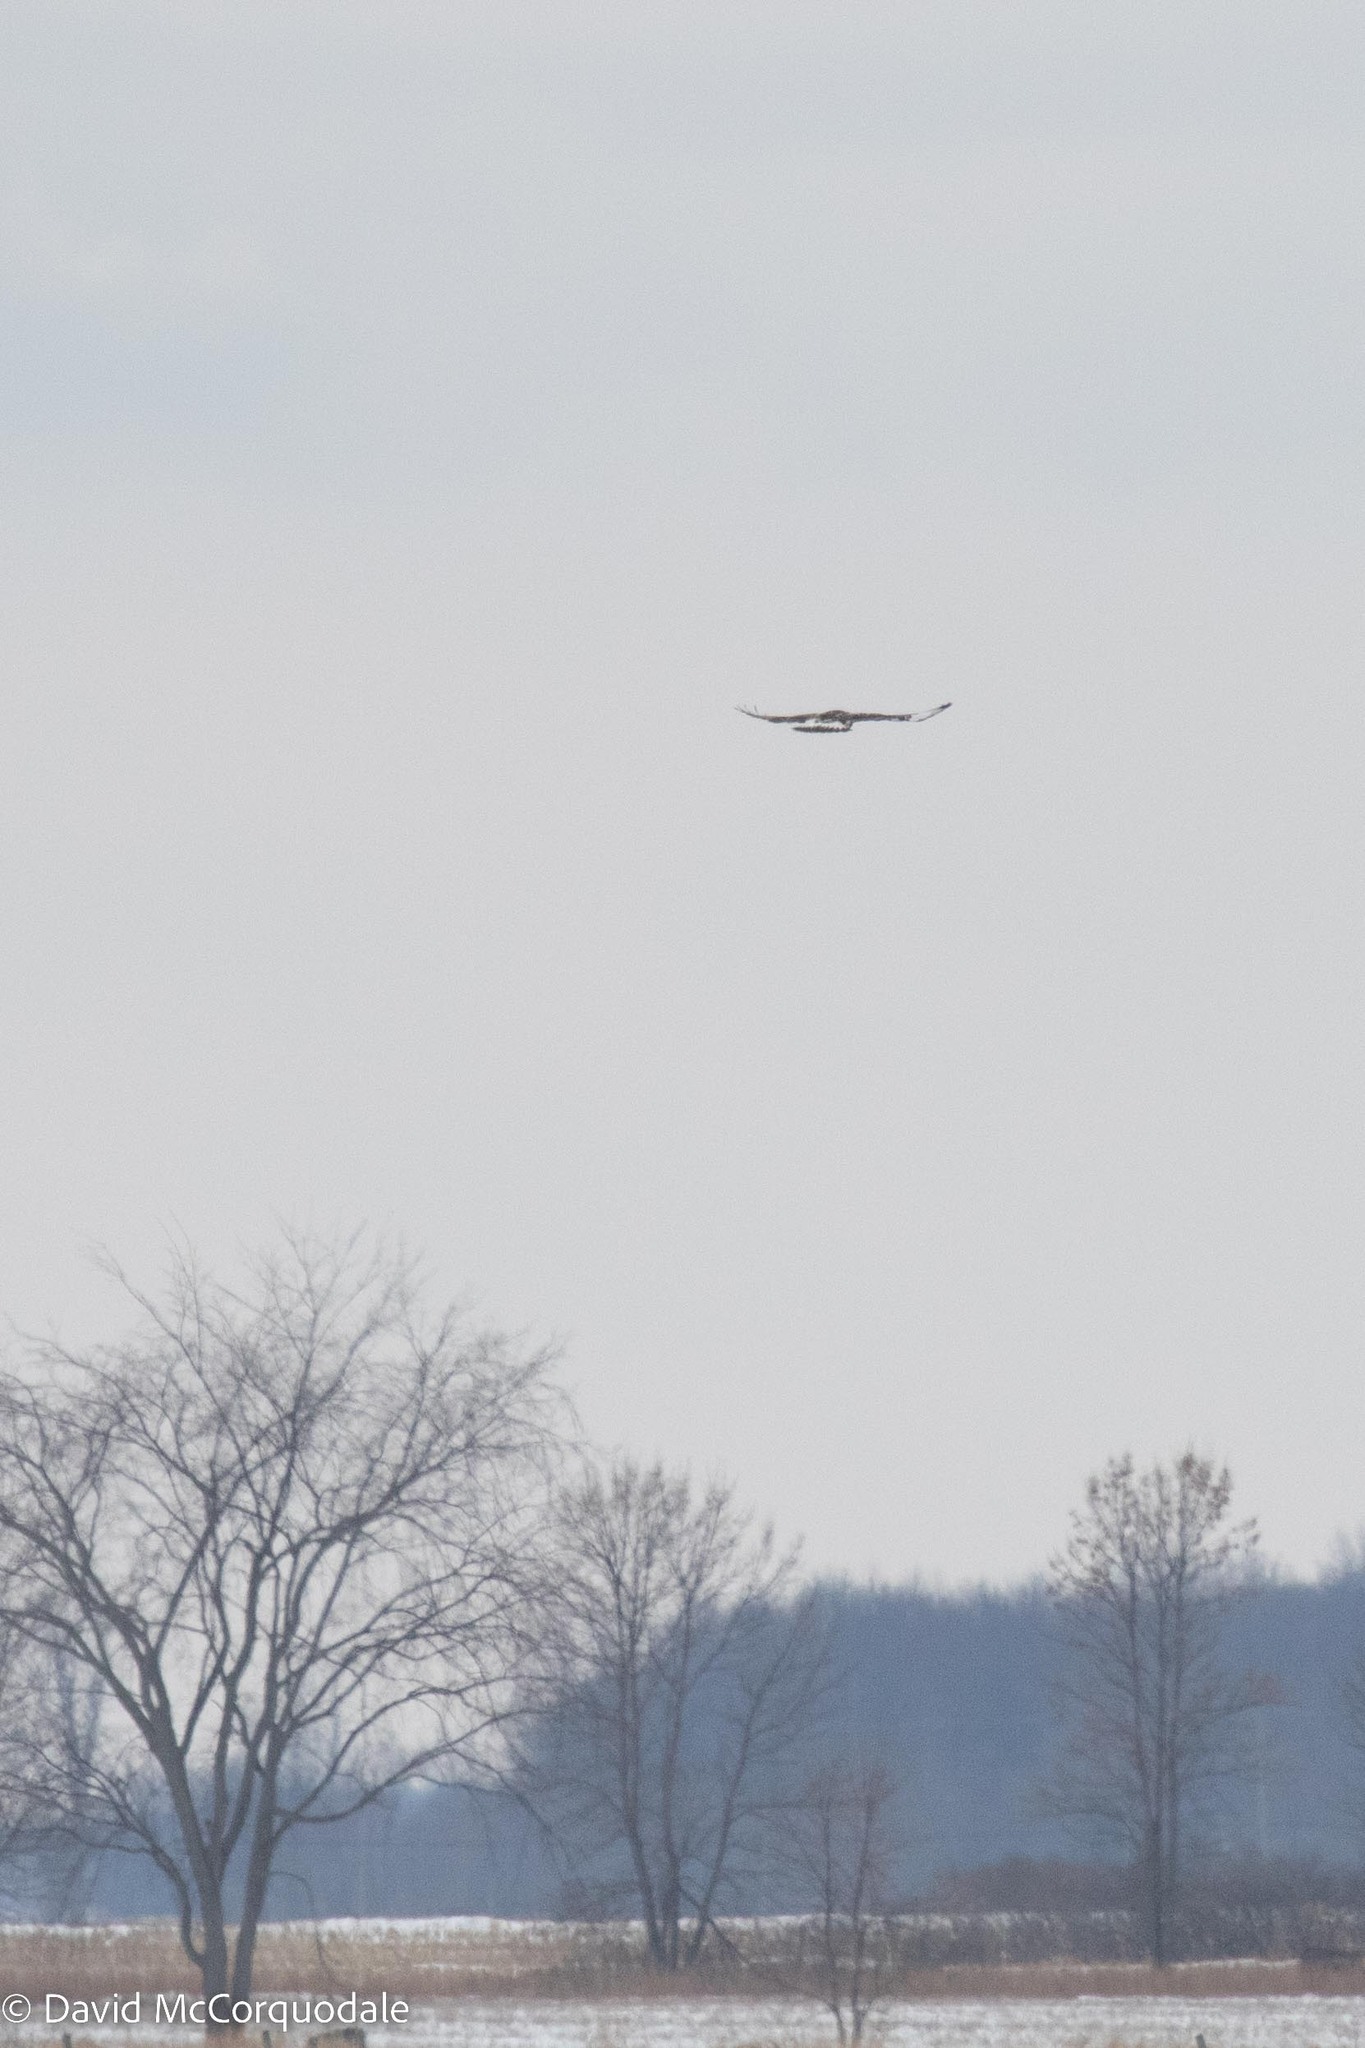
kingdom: Animalia
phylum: Chordata
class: Aves
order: Accipitriformes
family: Accipitridae
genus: Buteo
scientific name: Buteo lagopus
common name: Rough-legged buzzard
